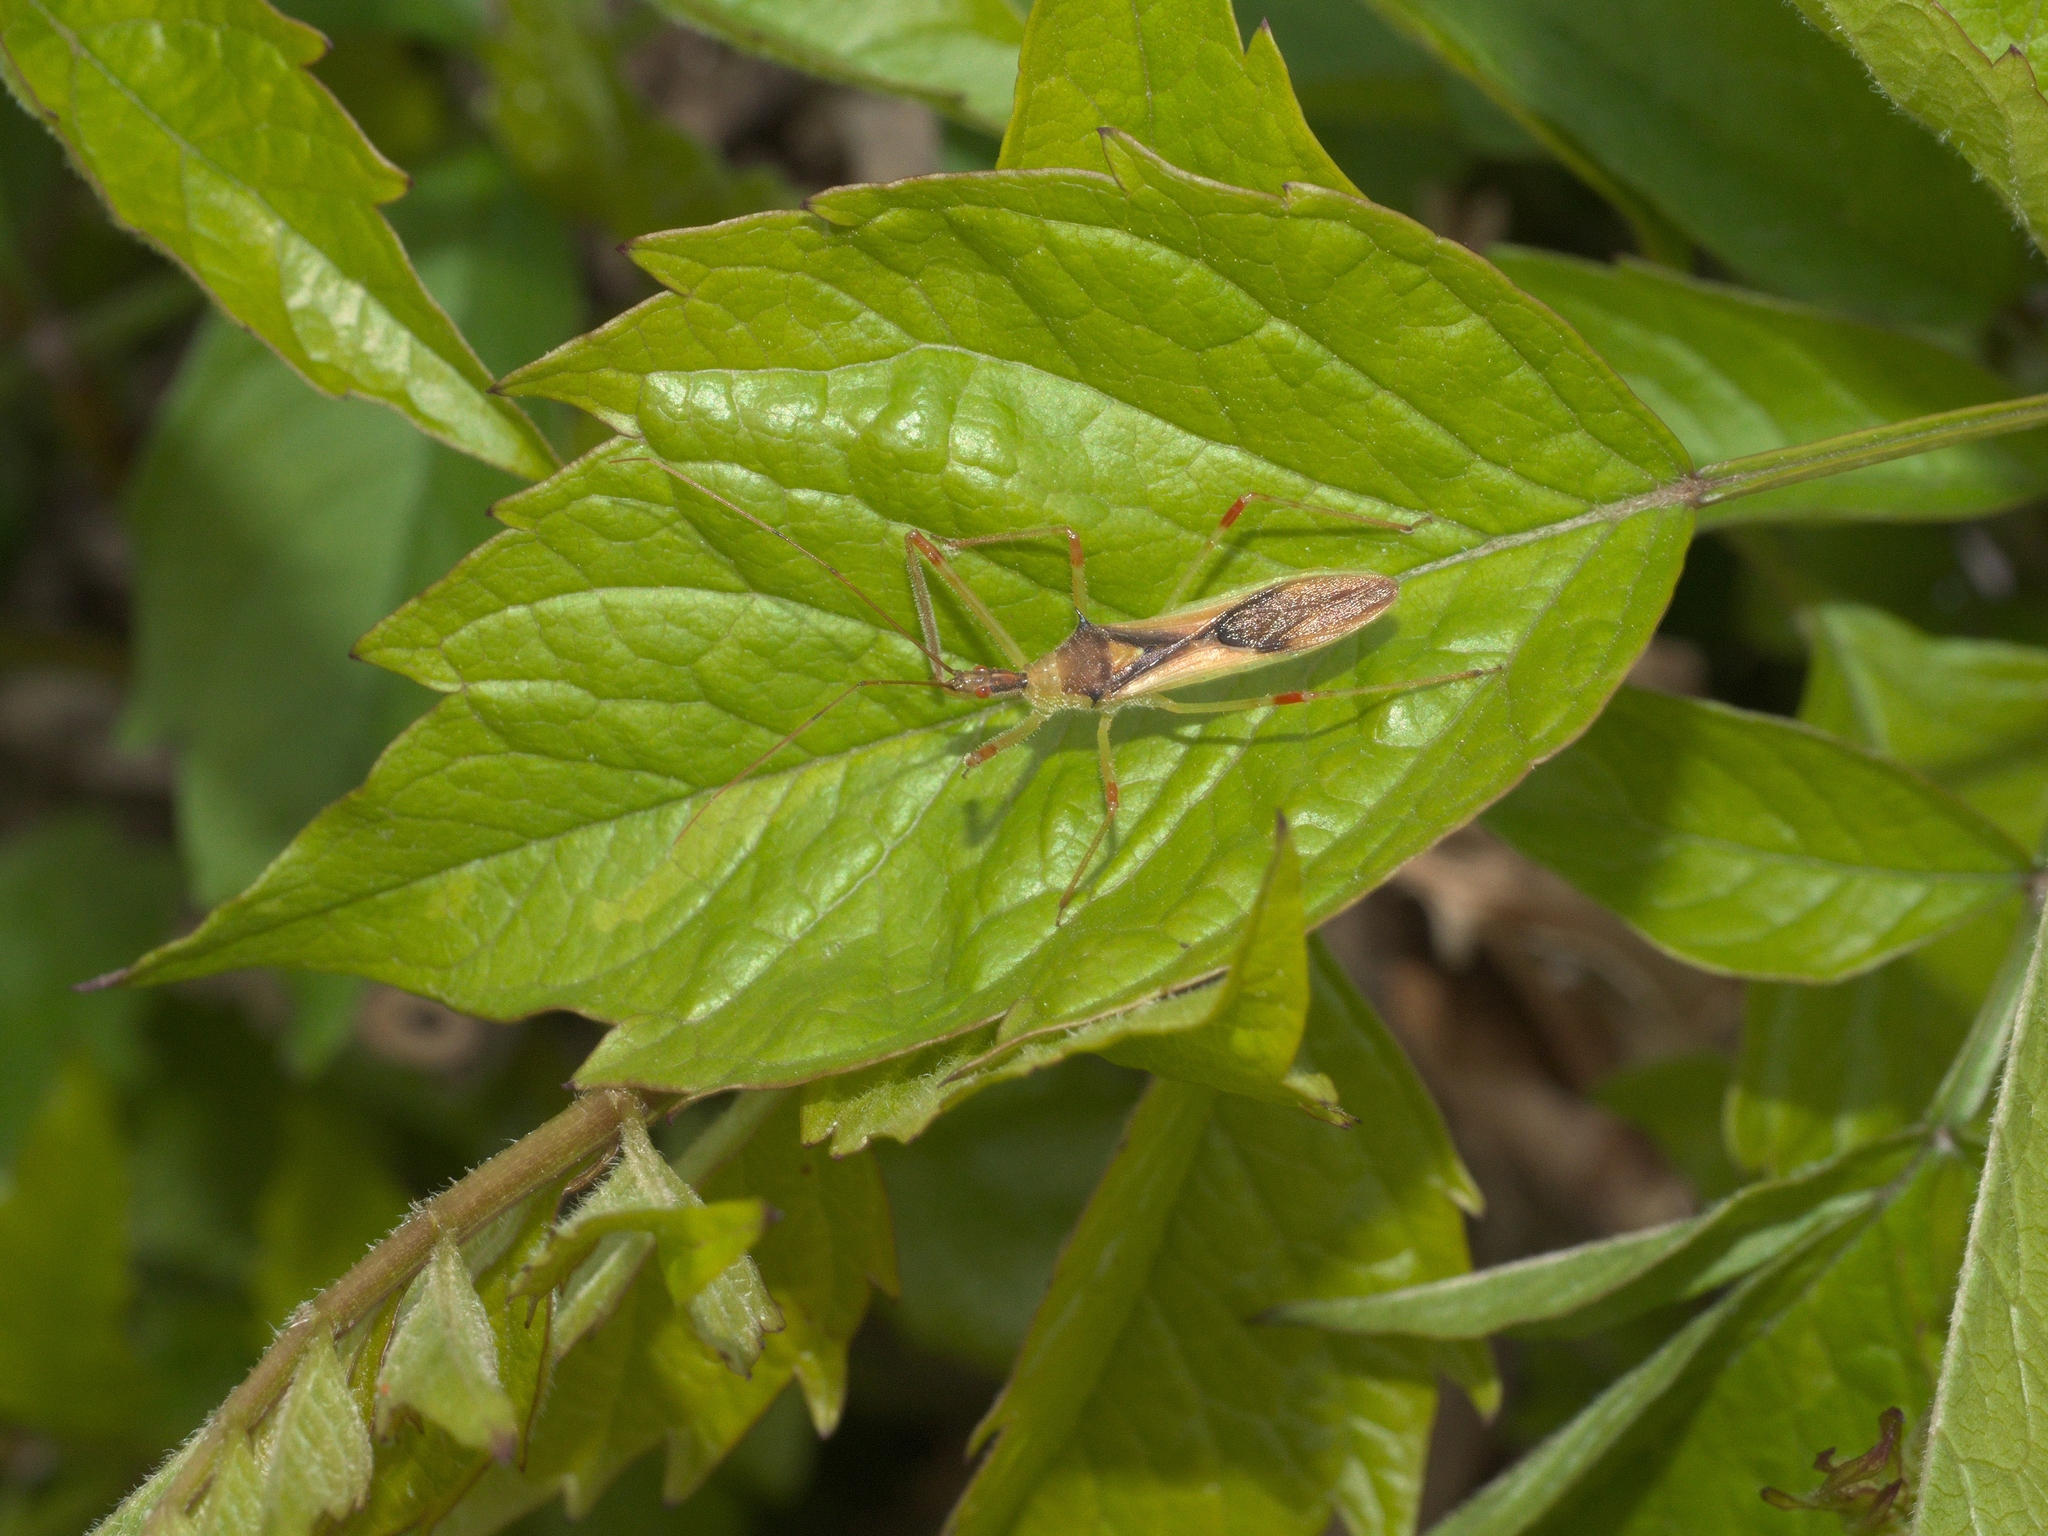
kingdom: Animalia
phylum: Arthropoda
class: Insecta
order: Hemiptera
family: Reduviidae
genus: Zelus
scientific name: Zelus luridus
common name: Pale green assassin bug
